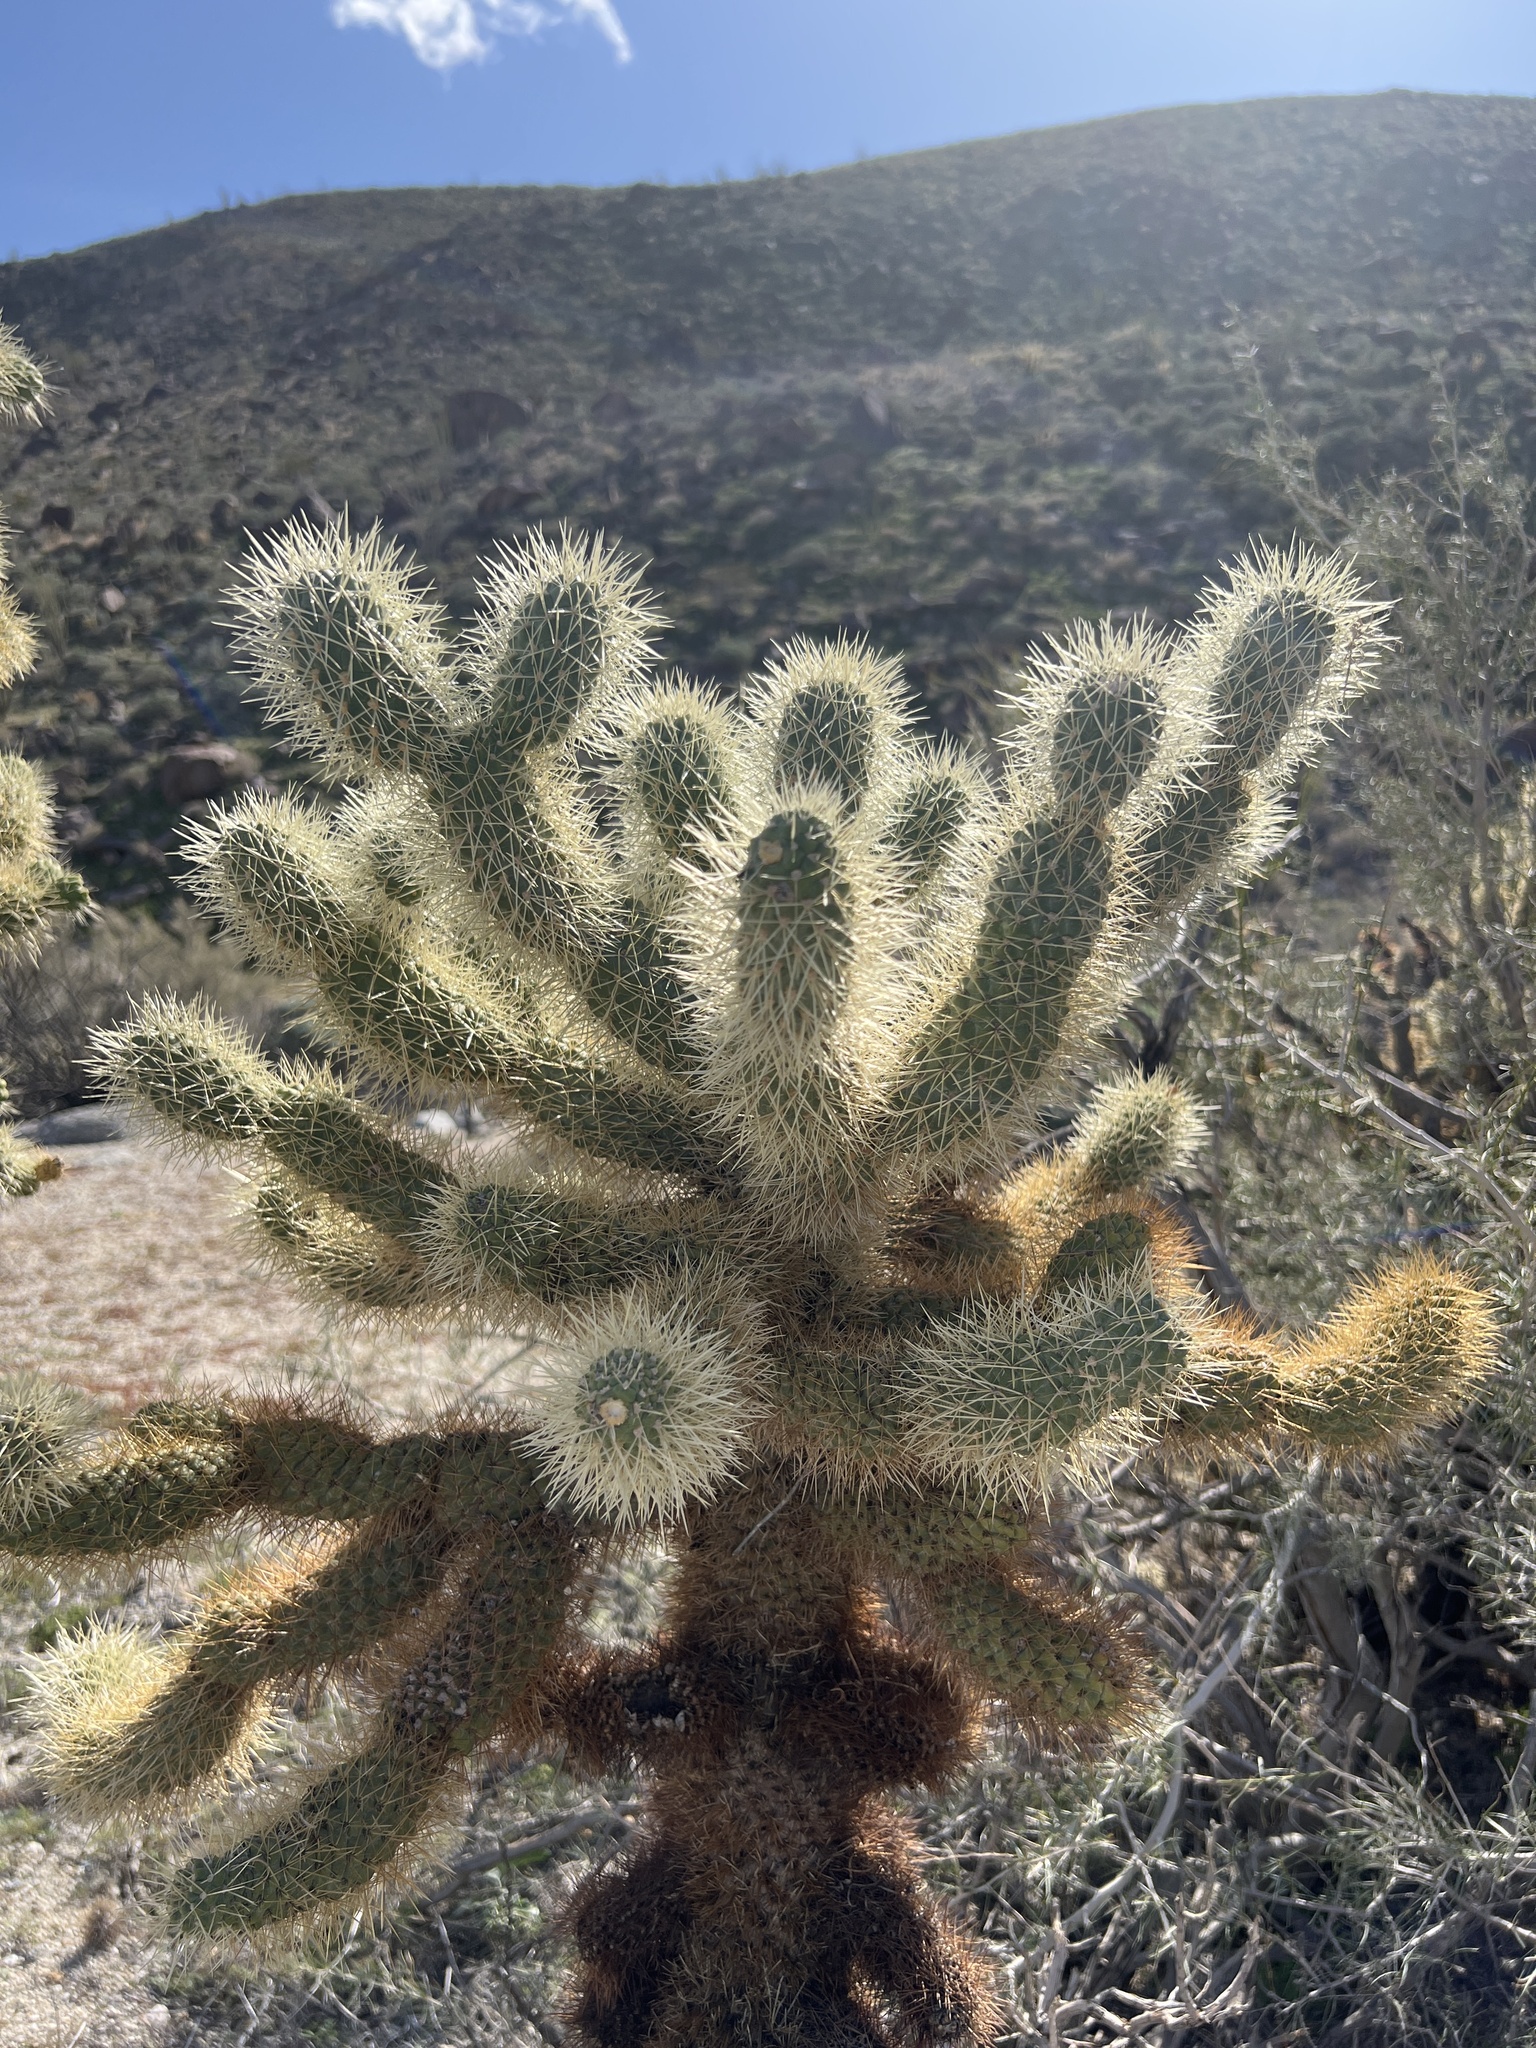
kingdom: Plantae
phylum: Tracheophyta
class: Magnoliopsida
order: Caryophyllales
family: Cactaceae
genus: Cylindropuntia
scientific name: Cylindropuntia fosbergii
